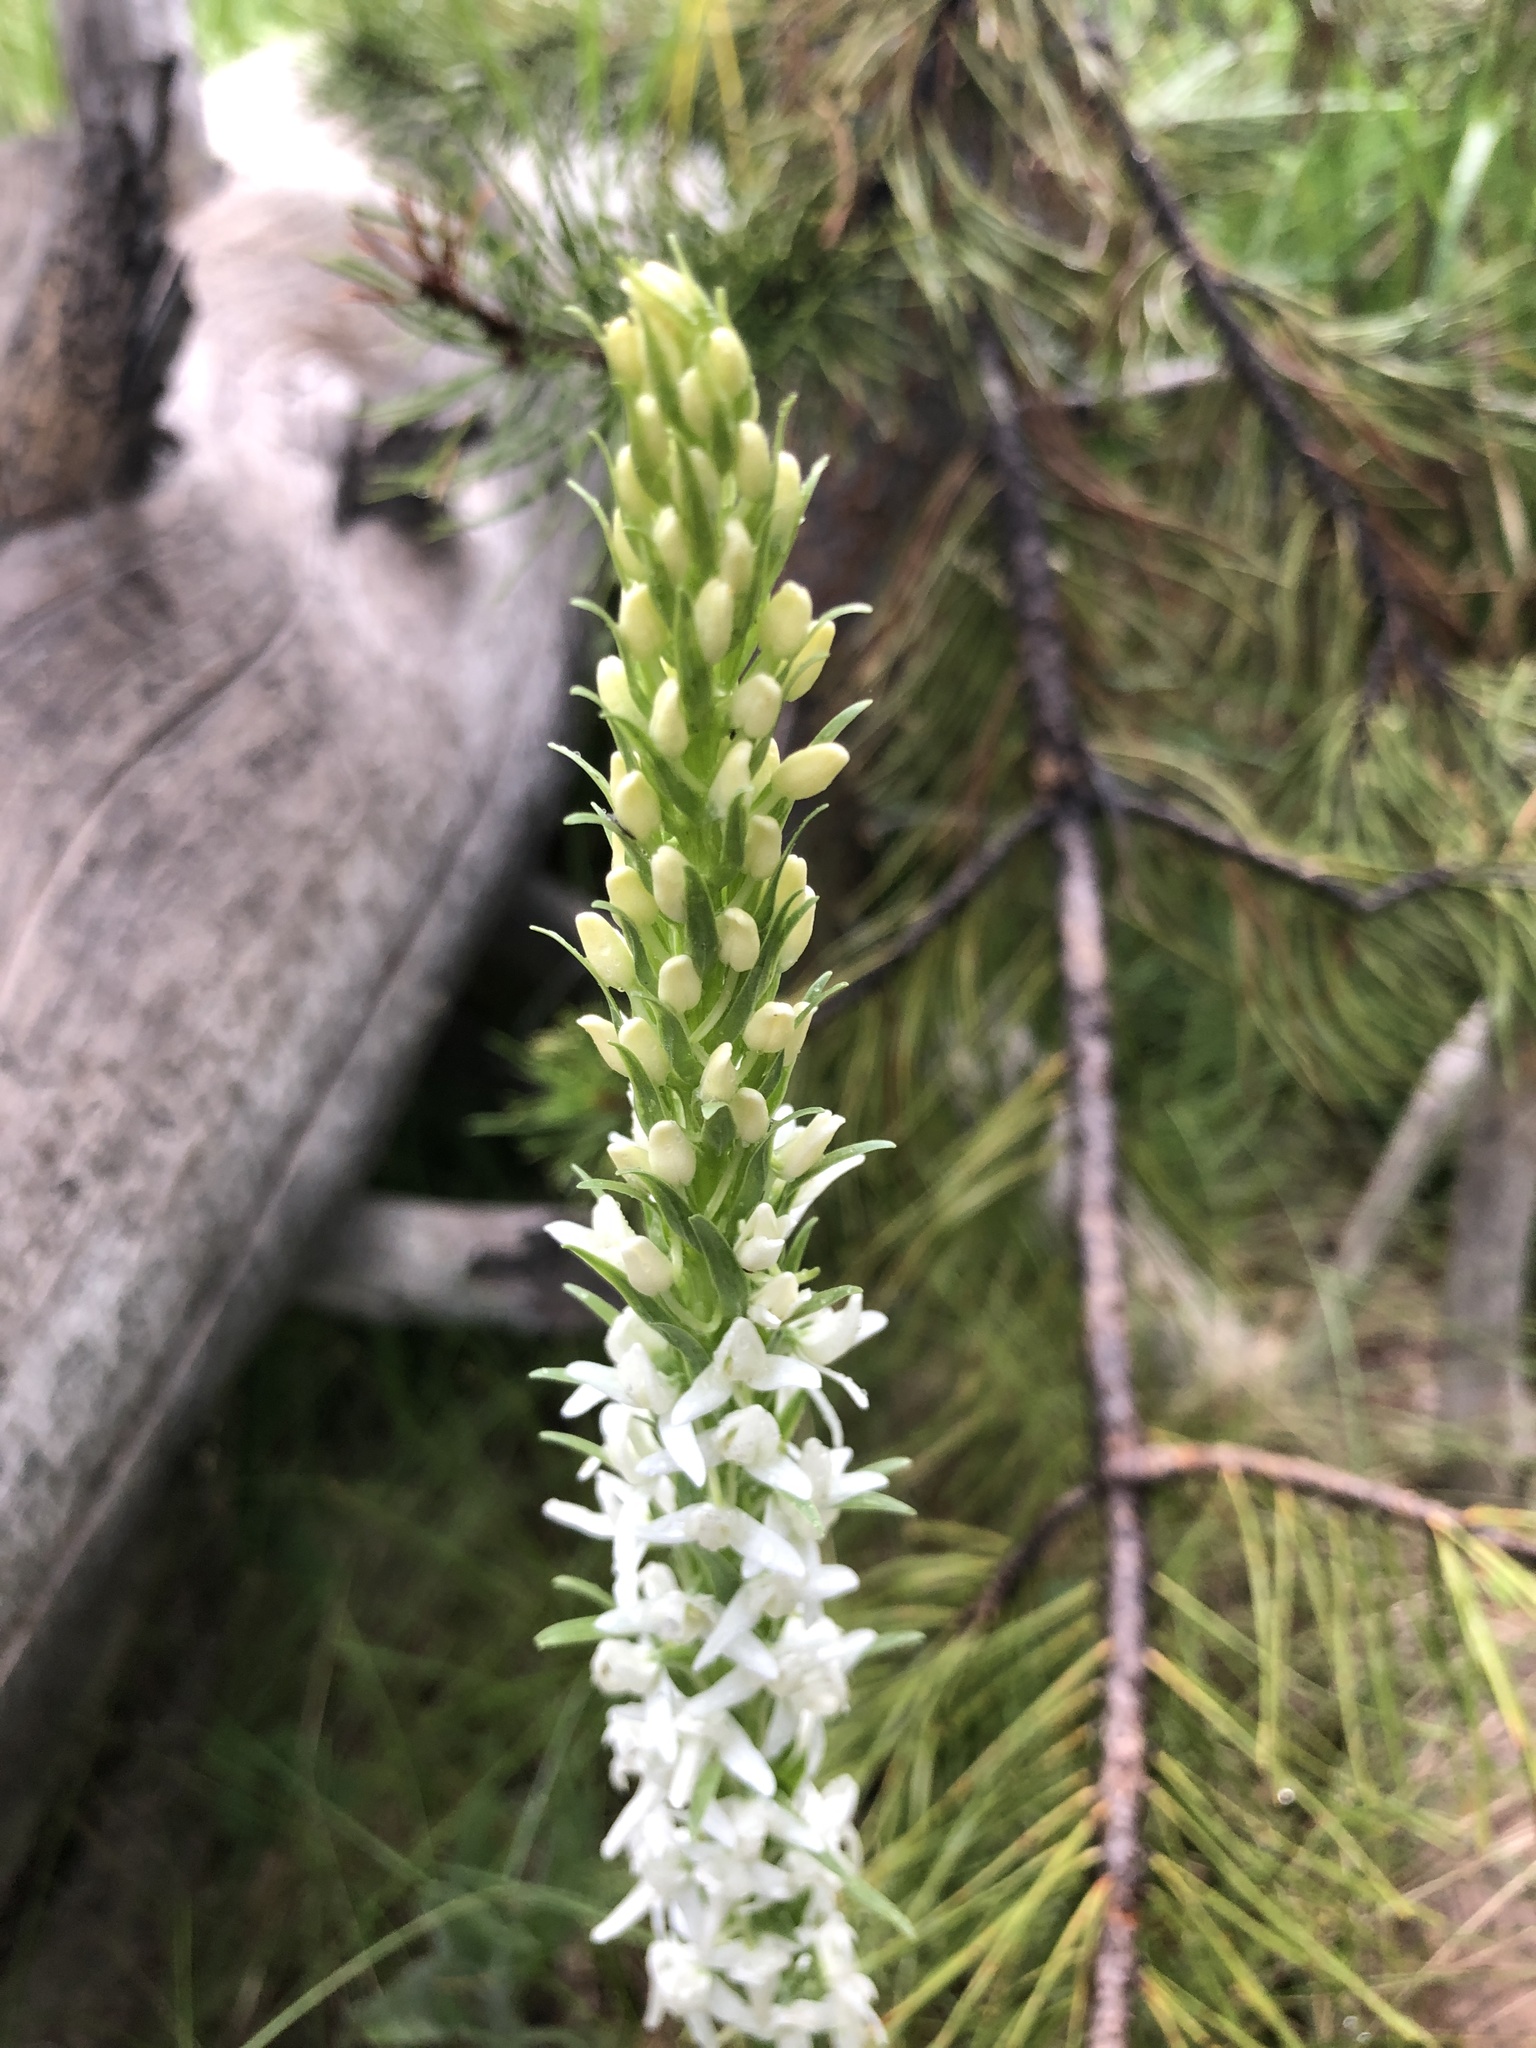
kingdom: Plantae
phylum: Tracheophyta
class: Liliopsida
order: Asparagales
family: Orchidaceae
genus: Platanthera
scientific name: Platanthera dilatata
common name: Bog candles
